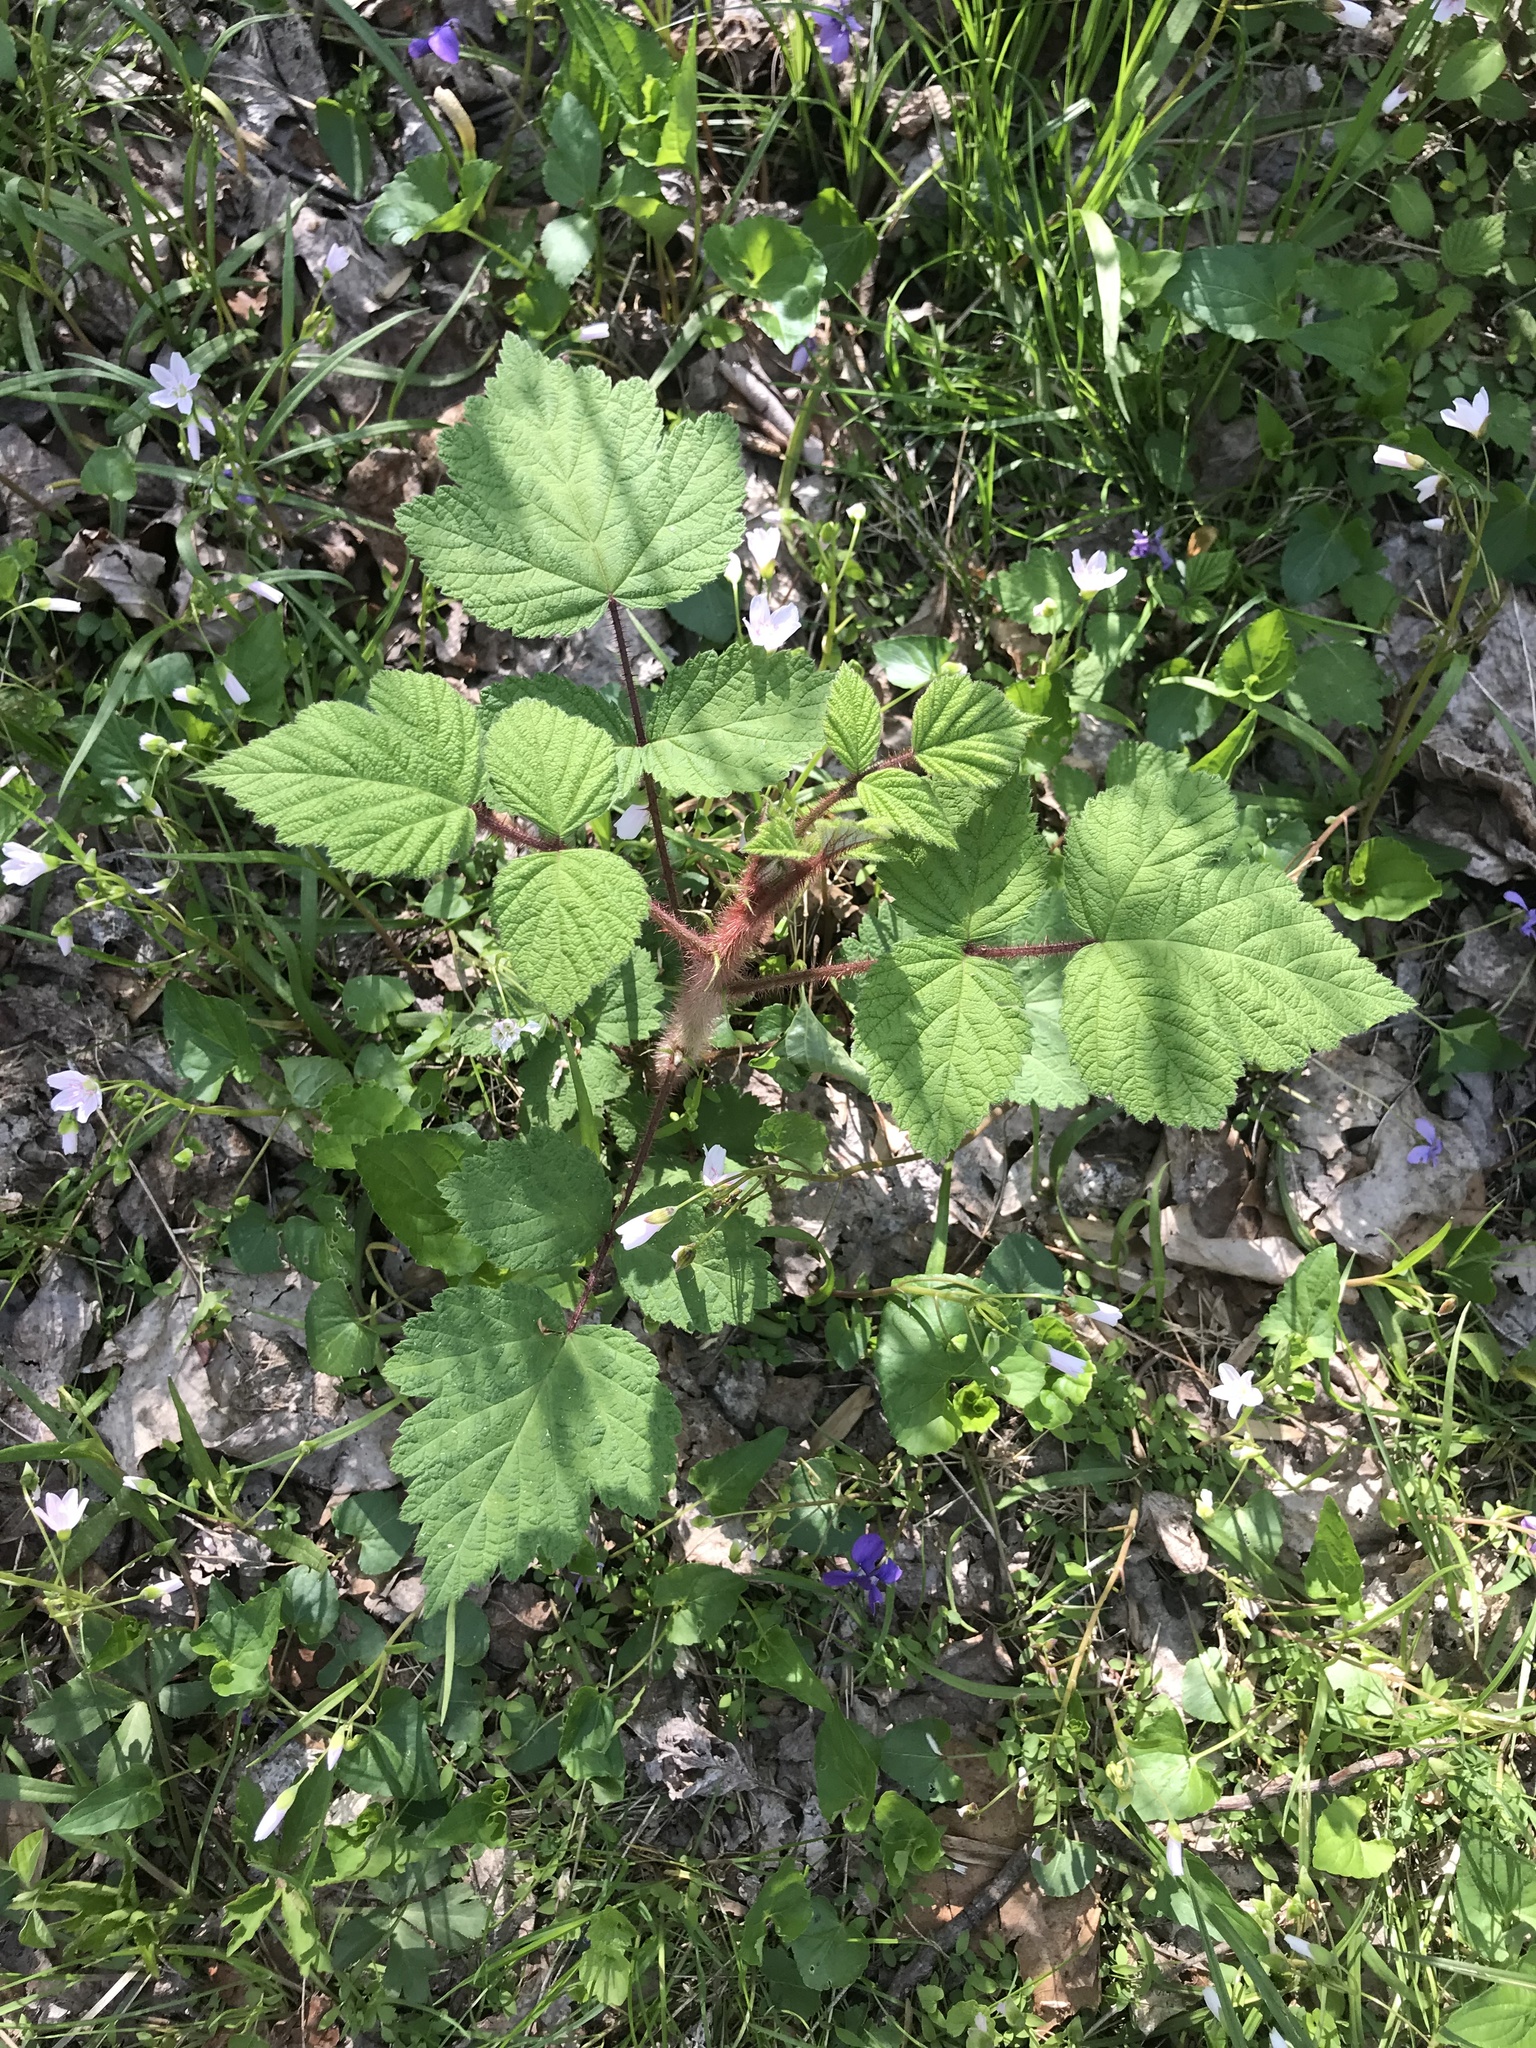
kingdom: Plantae
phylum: Tracheophyta
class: Magnoliopsida
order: Rosales
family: Rosaceae
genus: Rubus
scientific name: Rubus phoenicolasius
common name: Japanese wineberry
